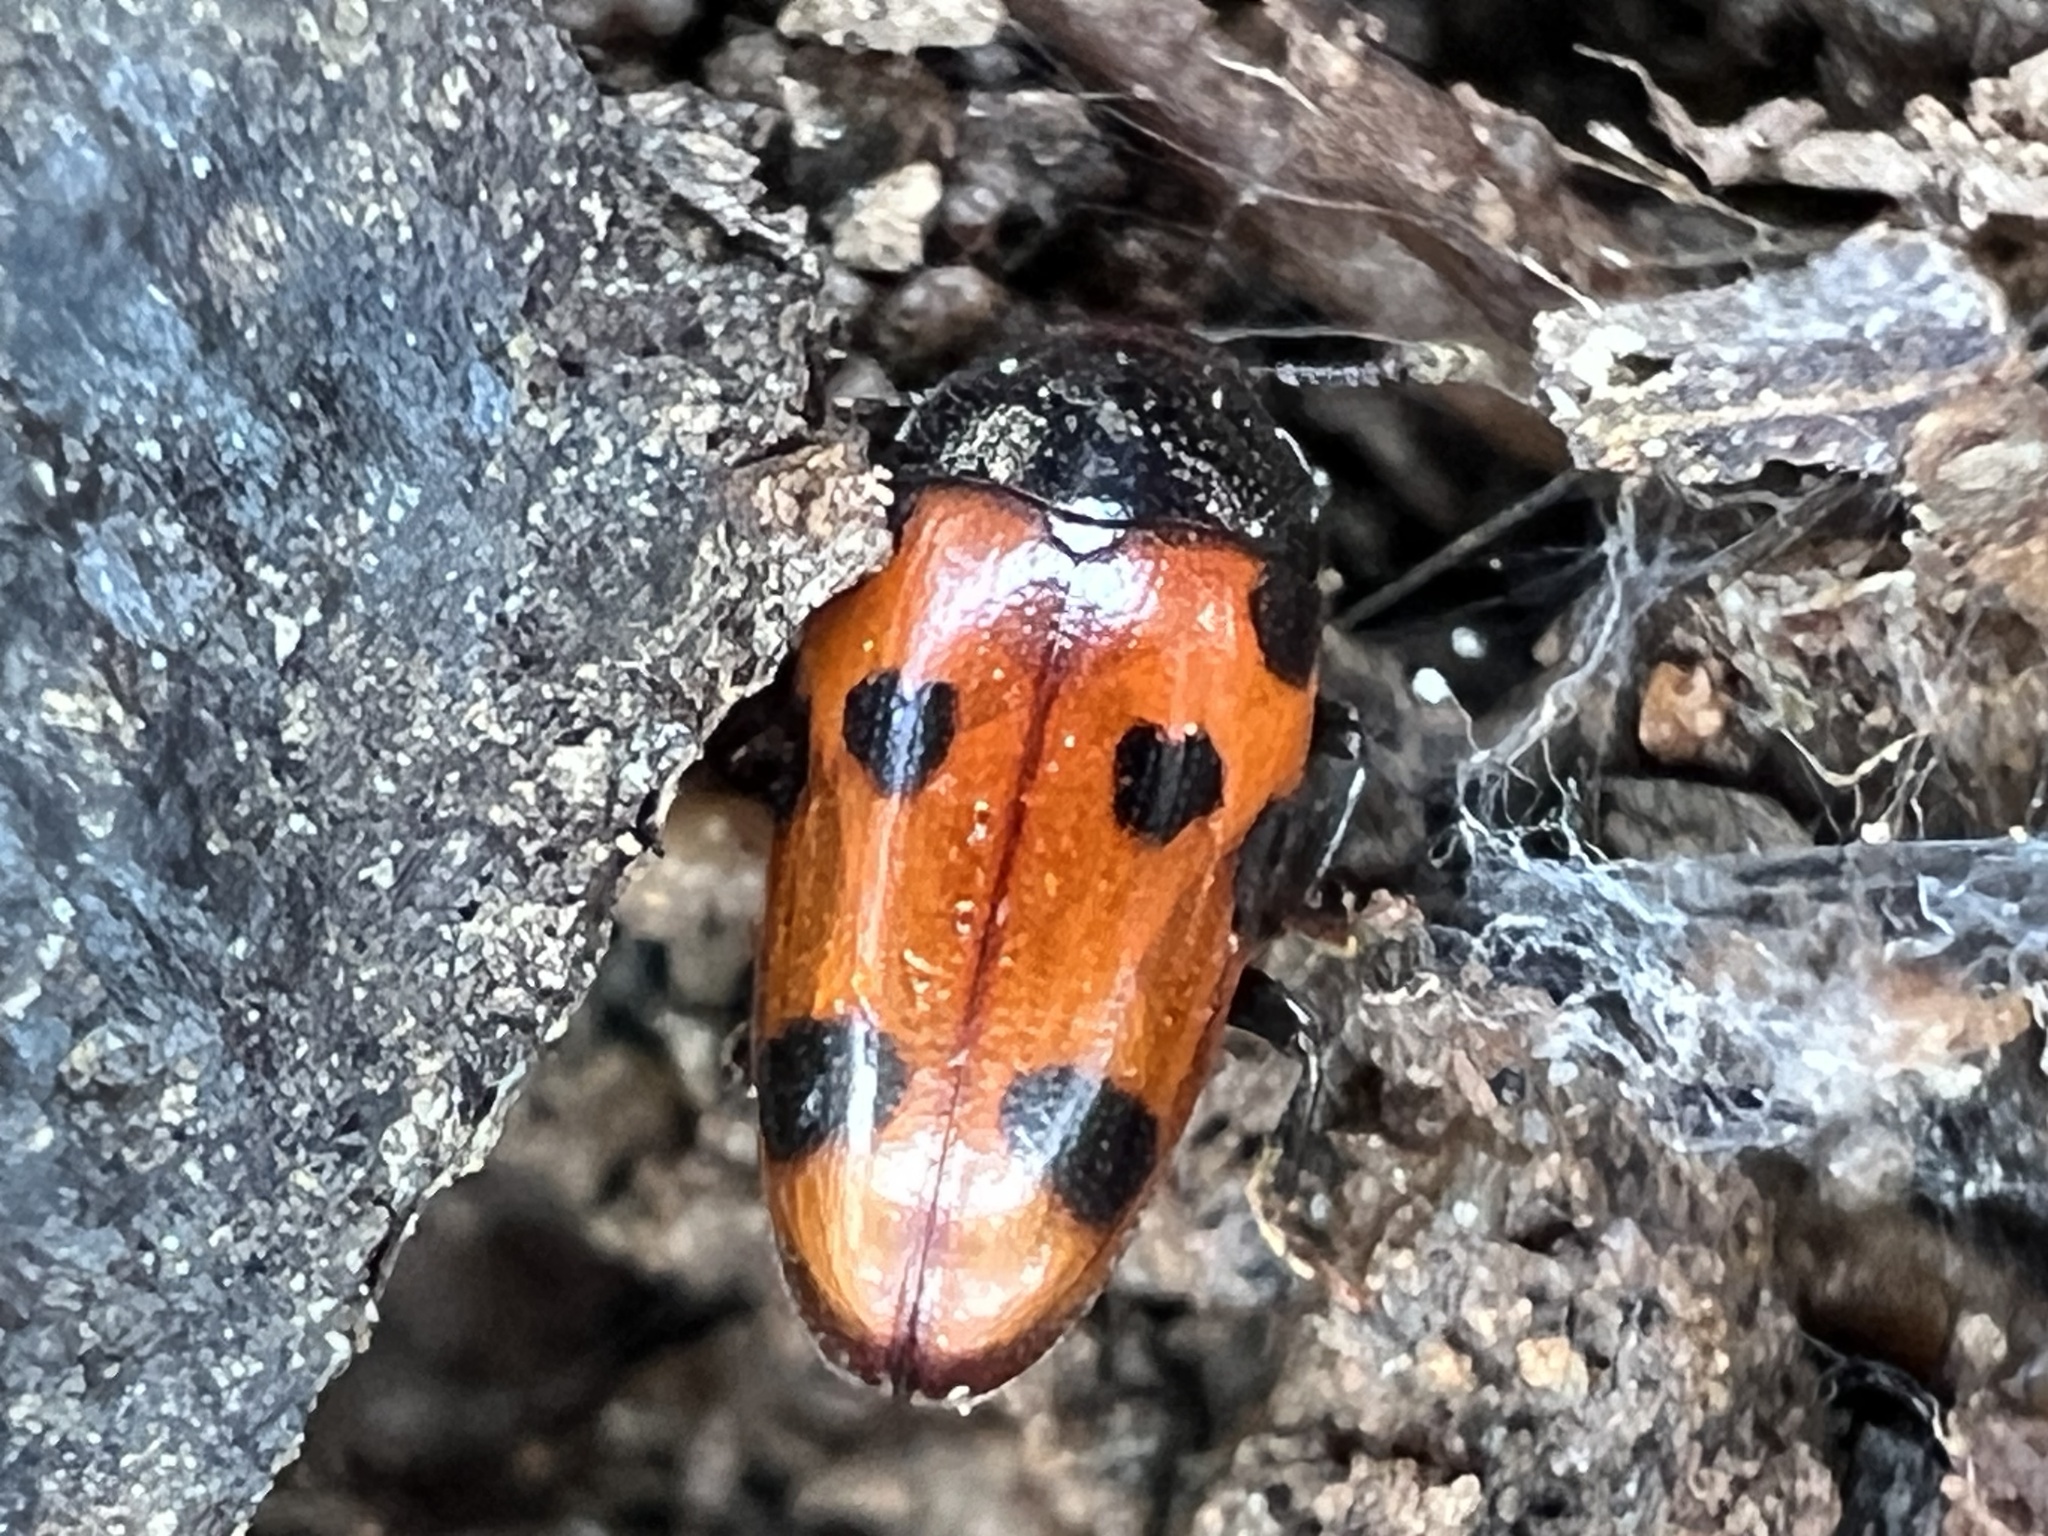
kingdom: Animalia
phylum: Arthropoda
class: Insecta
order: Coleoptera
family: Erotylidae
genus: Microsternus
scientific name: Microsternus ulkei
